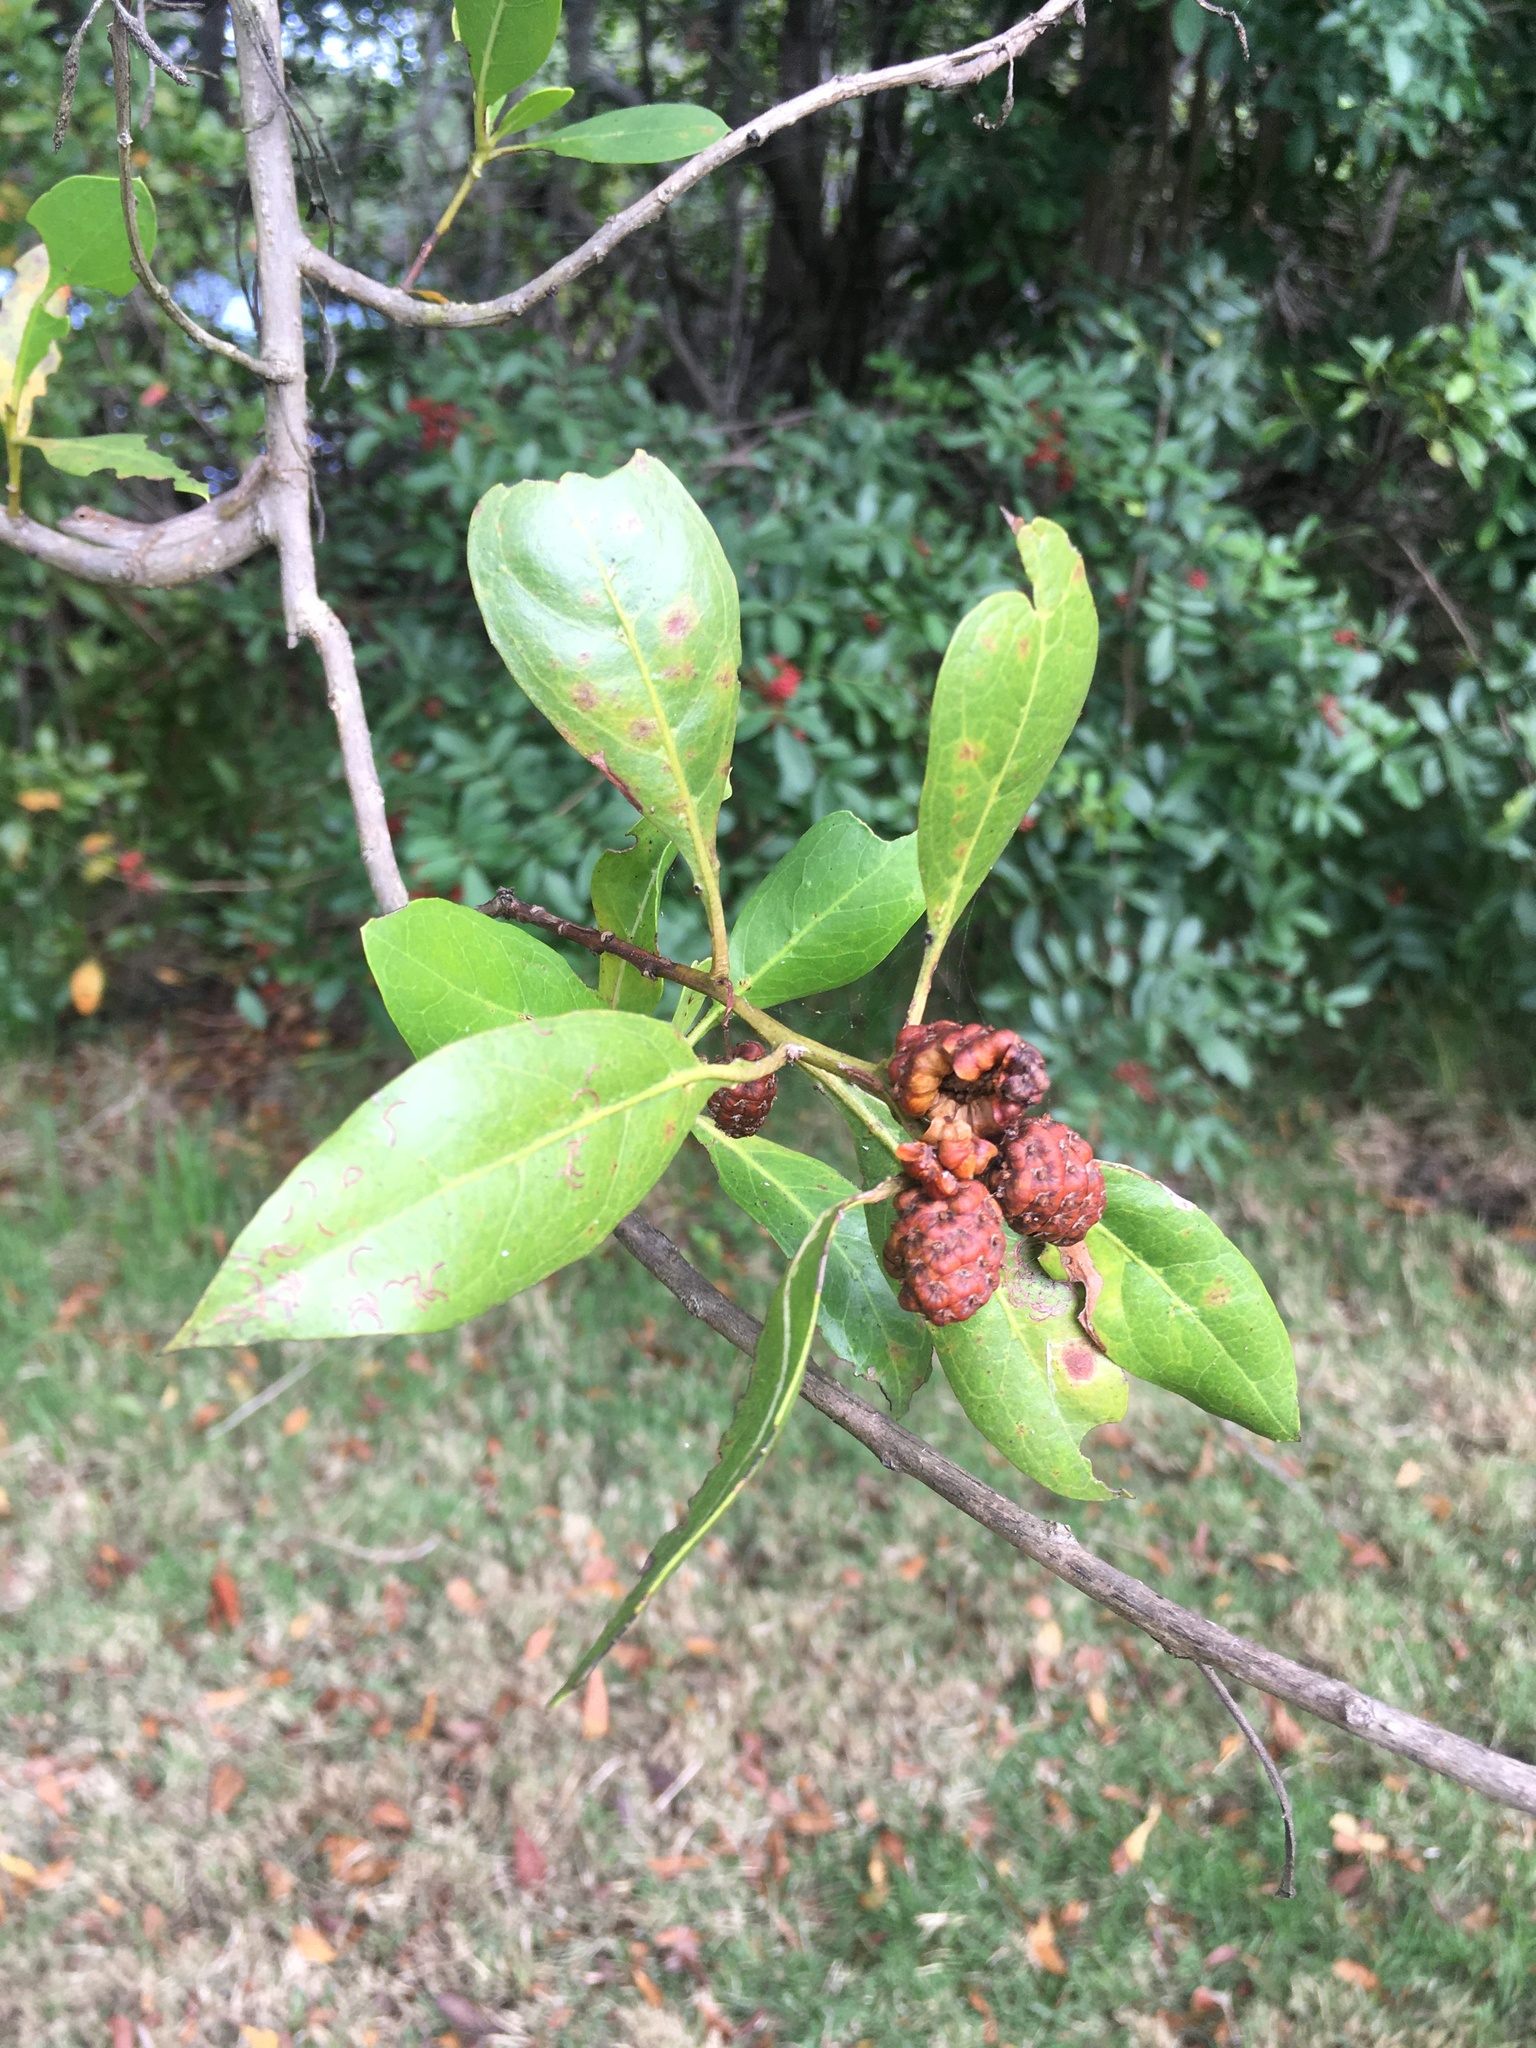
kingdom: Plantae
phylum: Tracheophyta
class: Magnoliopsida
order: Myrtales
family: Combretaceae
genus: Conocarpus
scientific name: Conocarpus erectus
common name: Button mangrove
